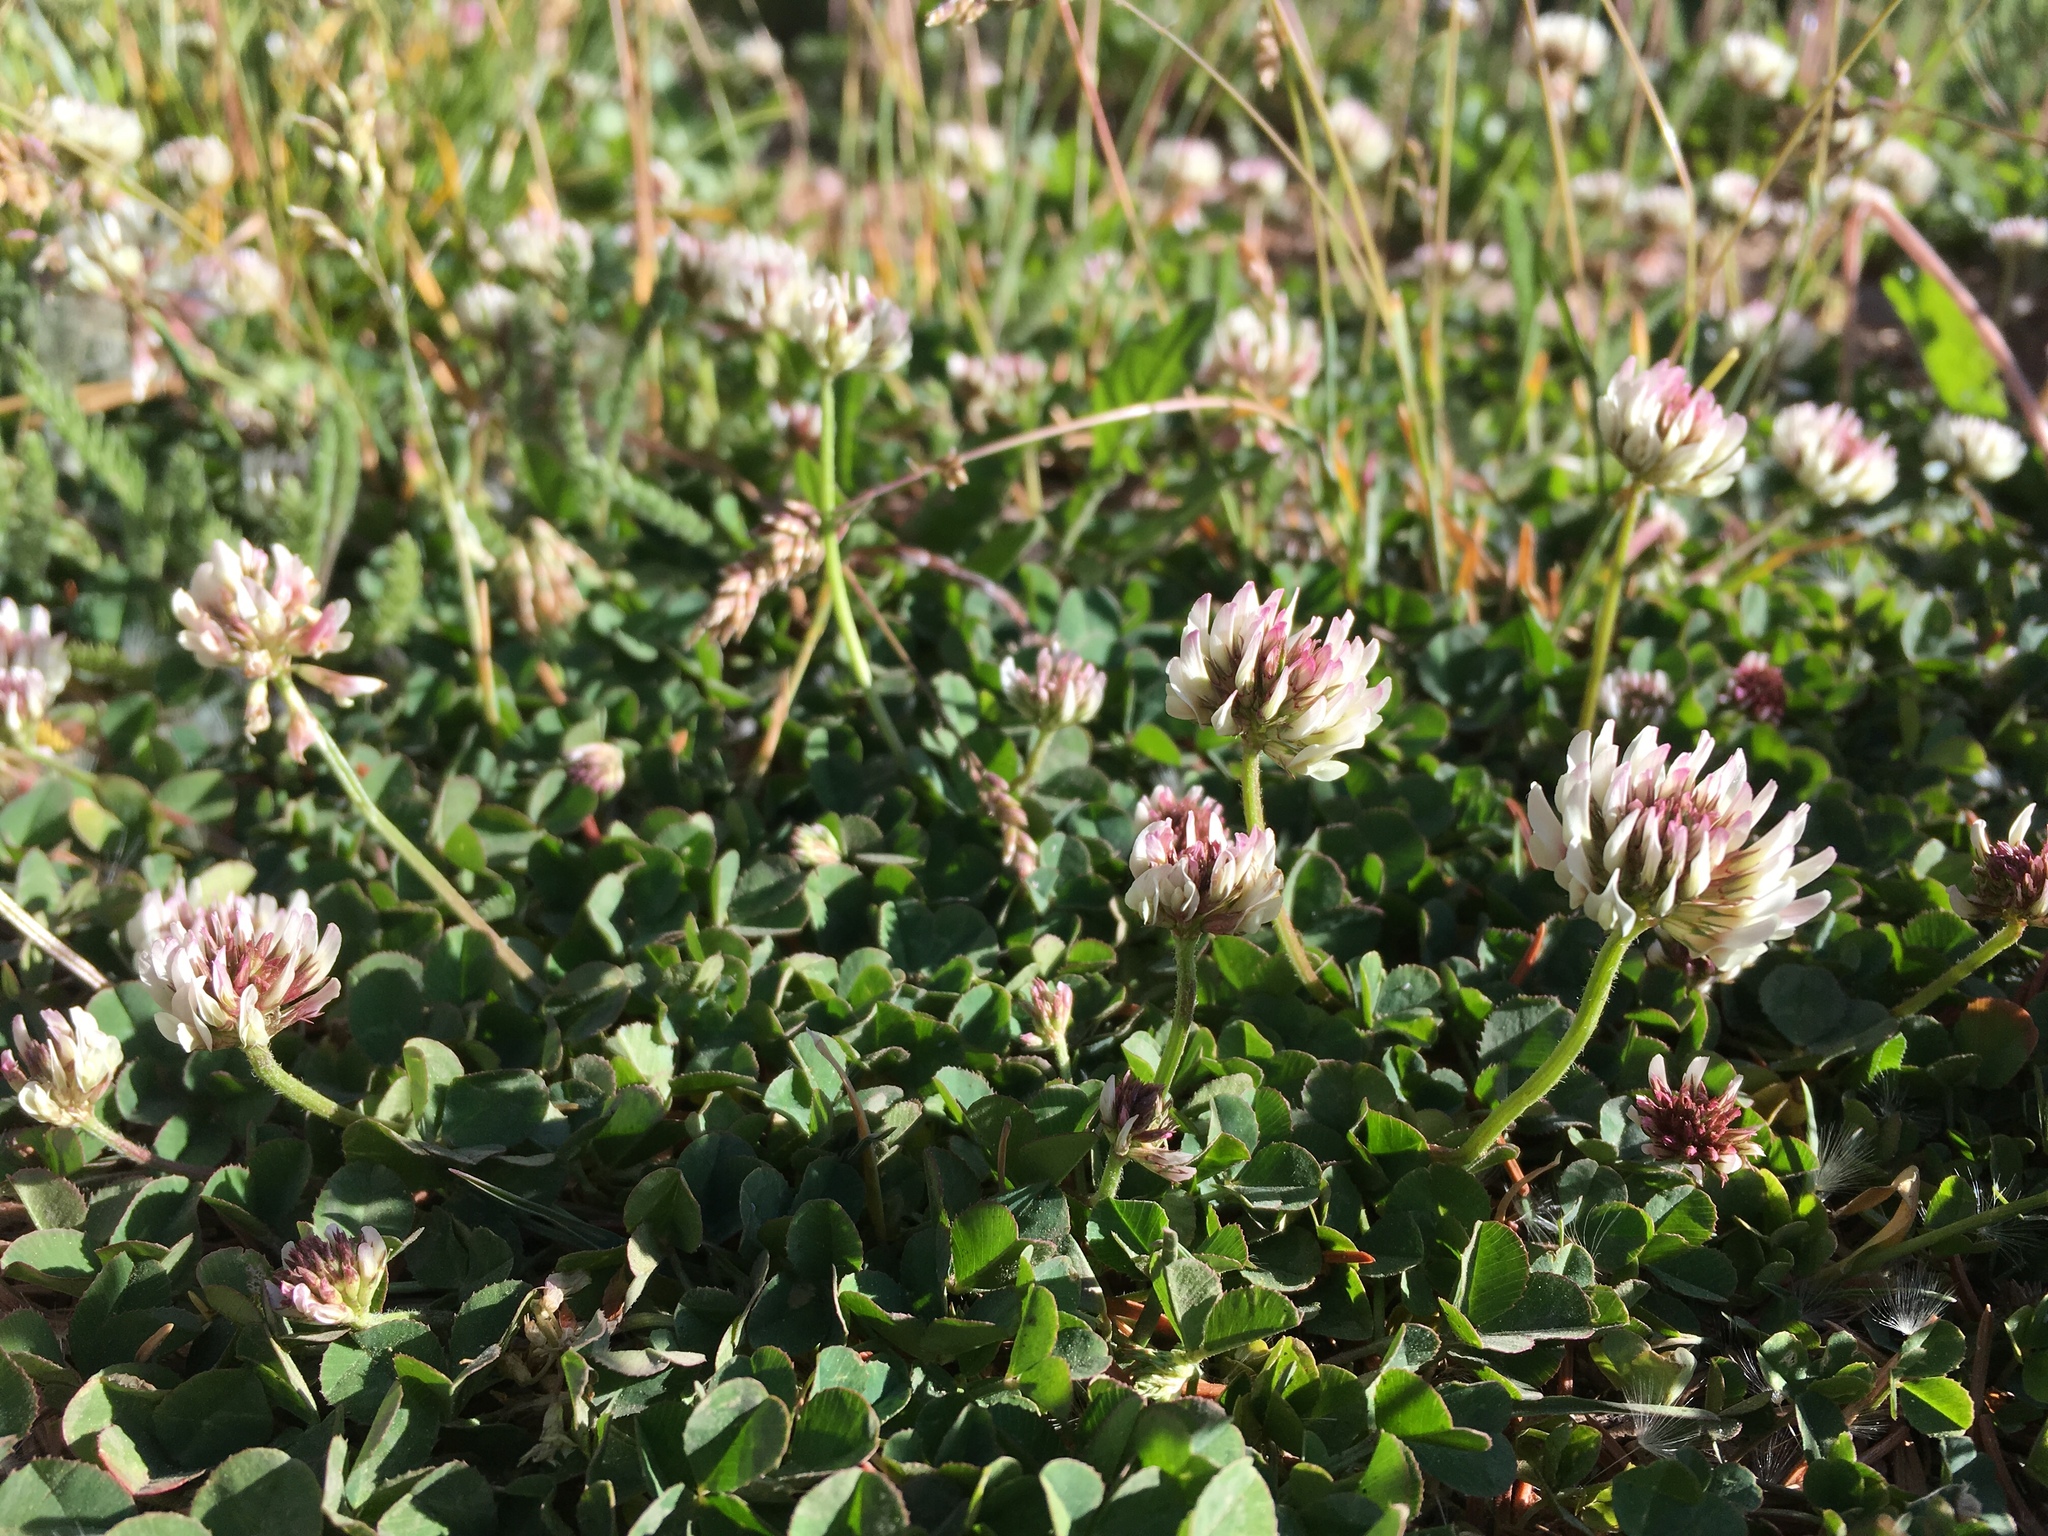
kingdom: Plantae
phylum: Tracheophyta
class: Magnoliopsida
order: Fabales
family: Fabaceae
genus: Trifolium
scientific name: Trifolium repens
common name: White clover
